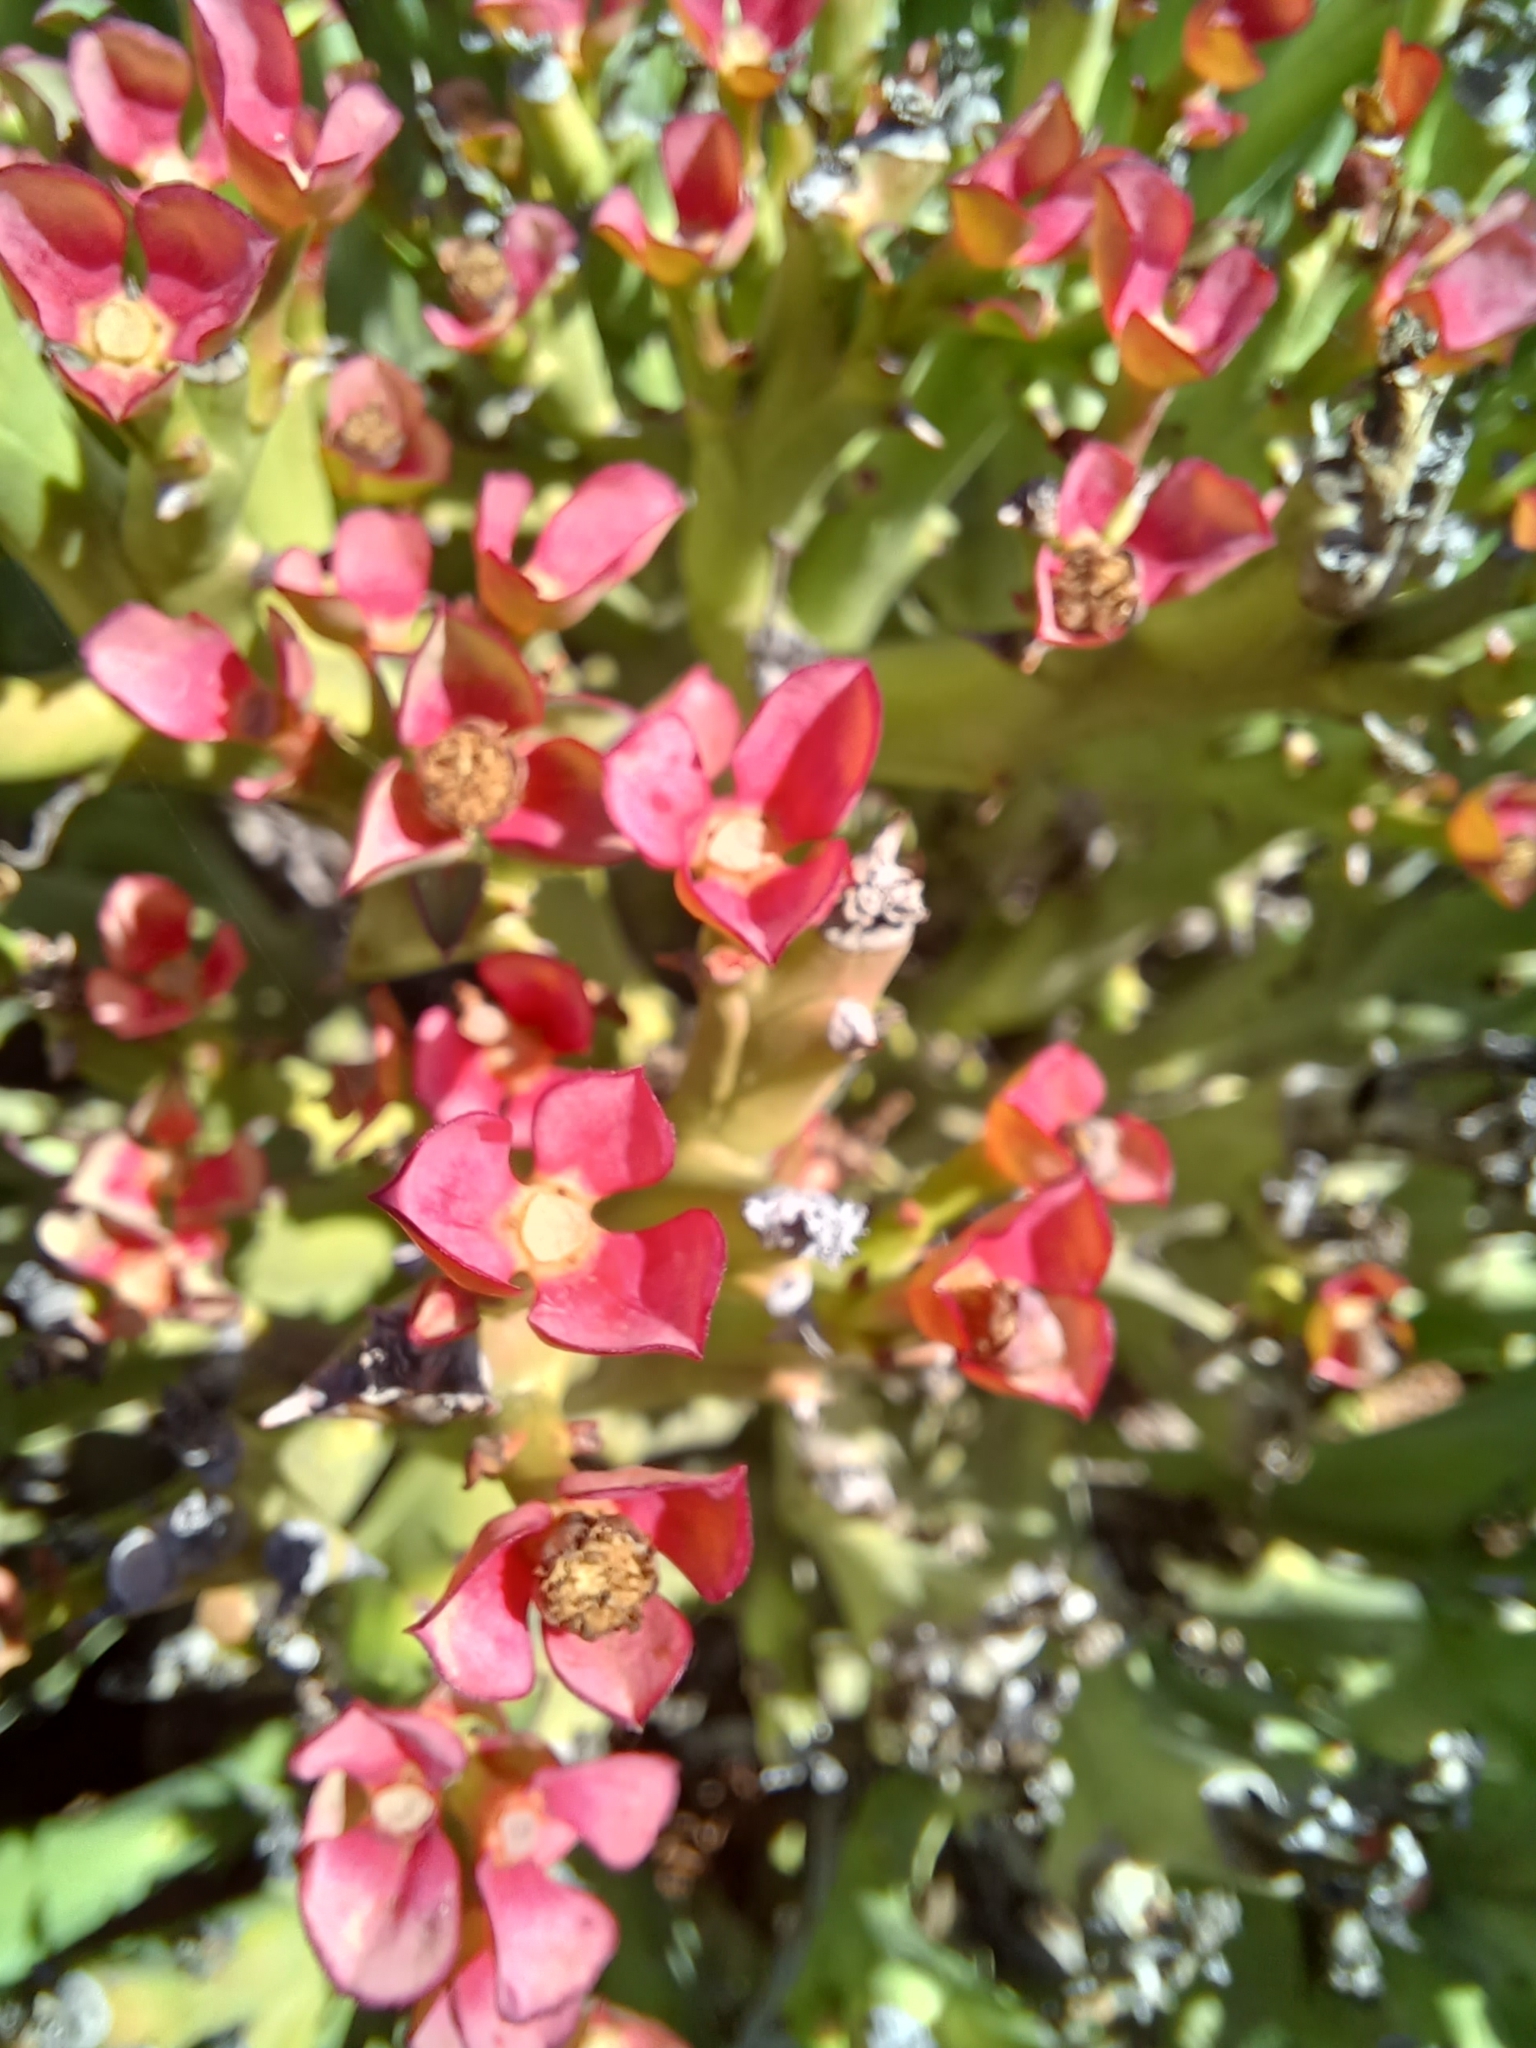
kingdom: Plantae
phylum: Tracheophyta
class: Magnoliopsida
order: Malpighiales
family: Euphorbiaceae
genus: Euphorbia
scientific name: Euphorbia hamata
